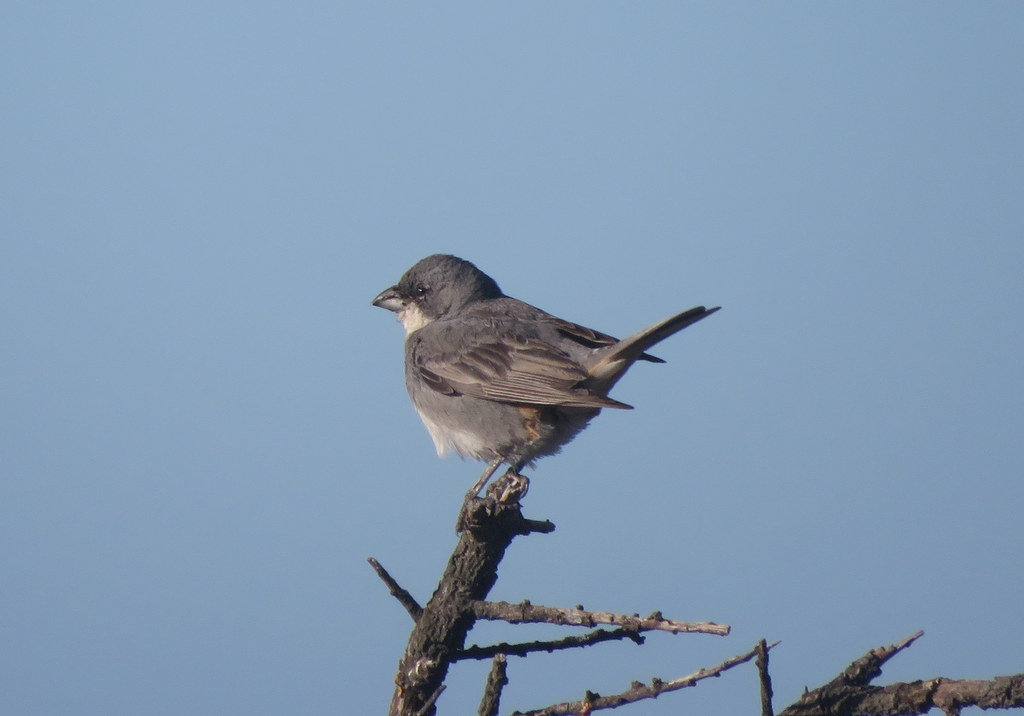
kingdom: Animalia
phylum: Chordata
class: Aves
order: Passeriformes
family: Thraupidae
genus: Diuca
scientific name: Diuca diuca
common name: Common diuca finch
